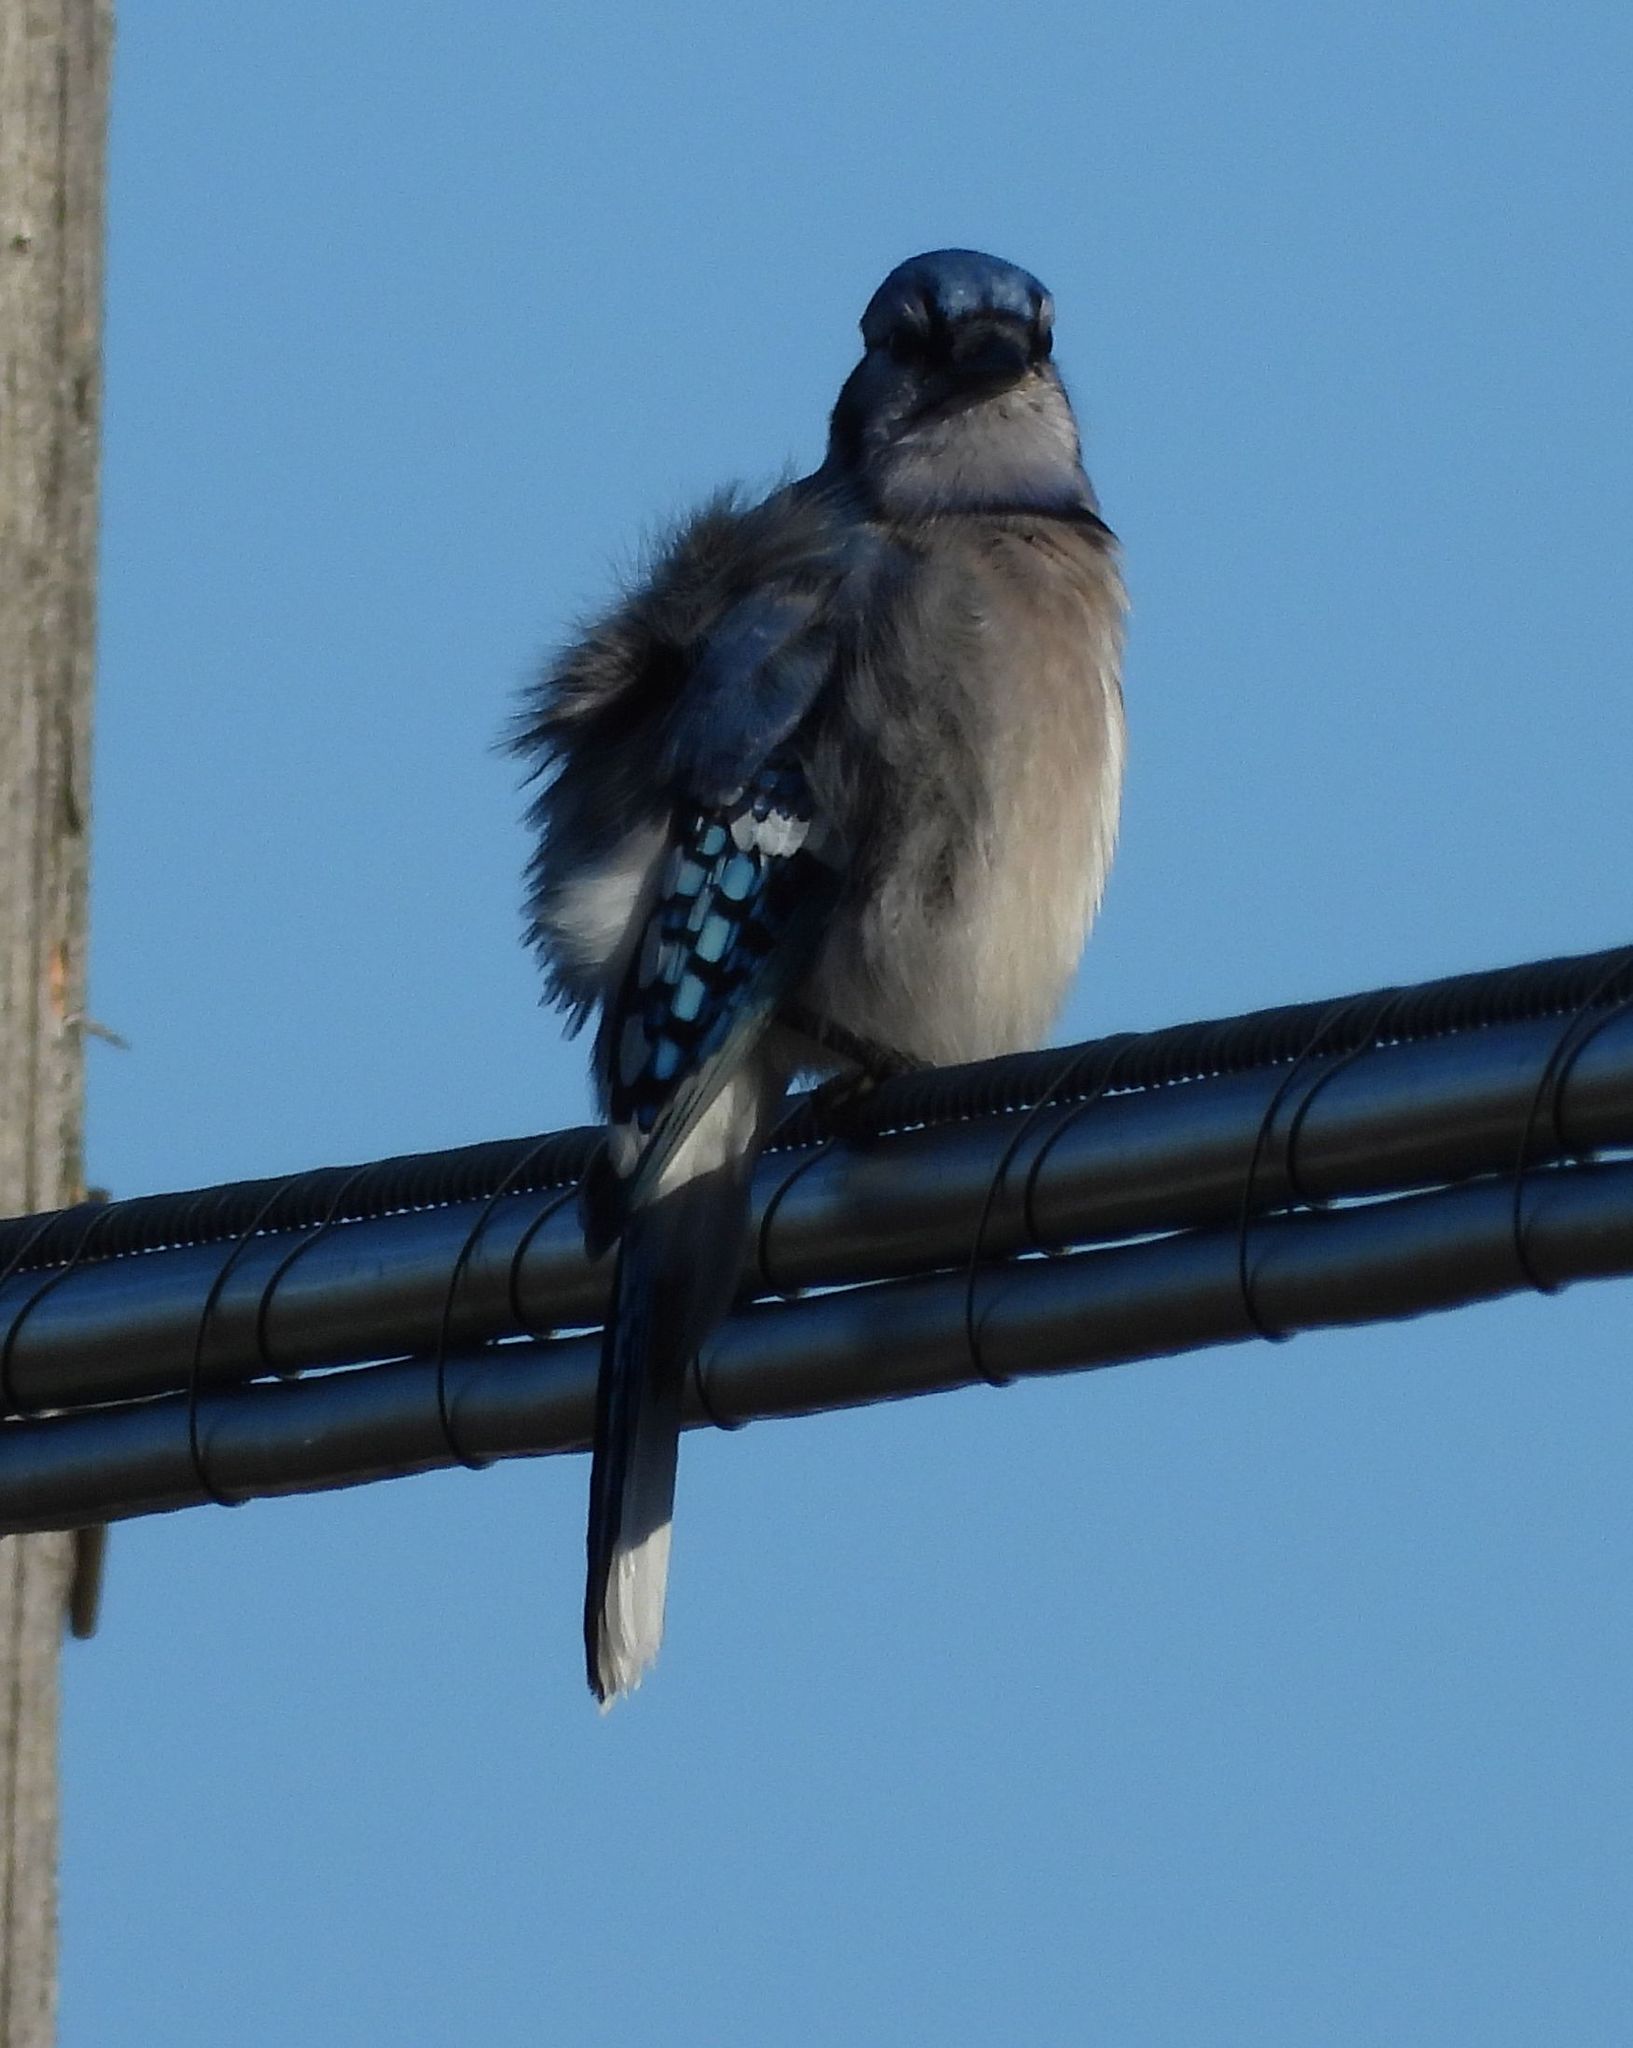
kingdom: Animalia
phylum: Chordata
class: Aves
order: Passeriformes
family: Corvidae
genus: Cyanocitta
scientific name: Cyanocitta cristata
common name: Blue jay
